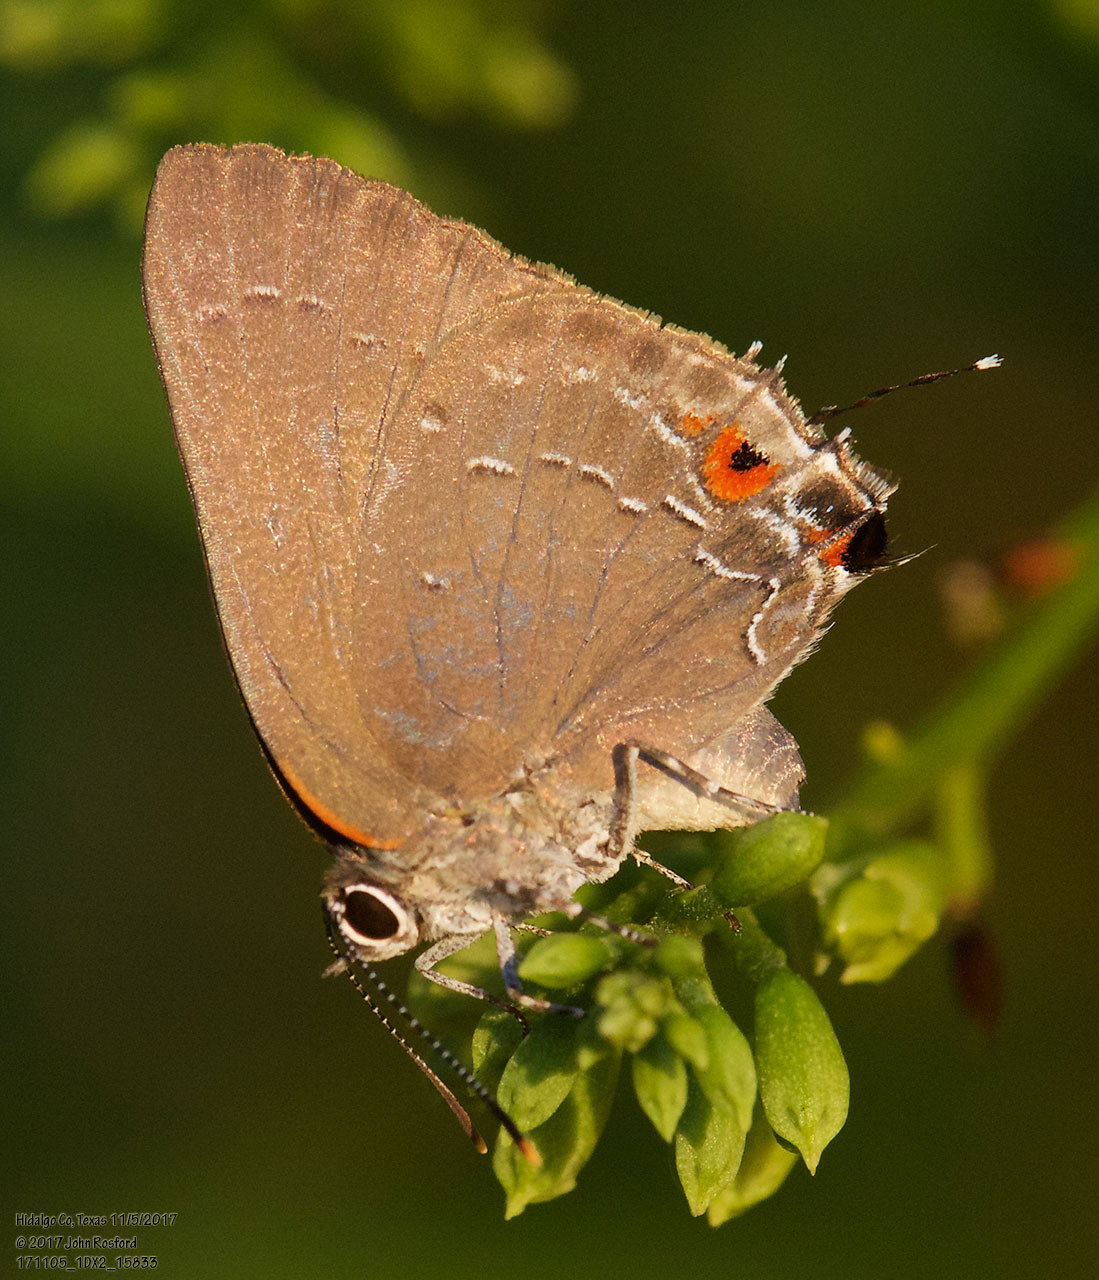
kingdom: Animalia
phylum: Arthropoda
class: Insecta
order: Lepidoptera
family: Lycaenidae
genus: Michaelus
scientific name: Michaelus ira
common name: Shadowed hairstreak
